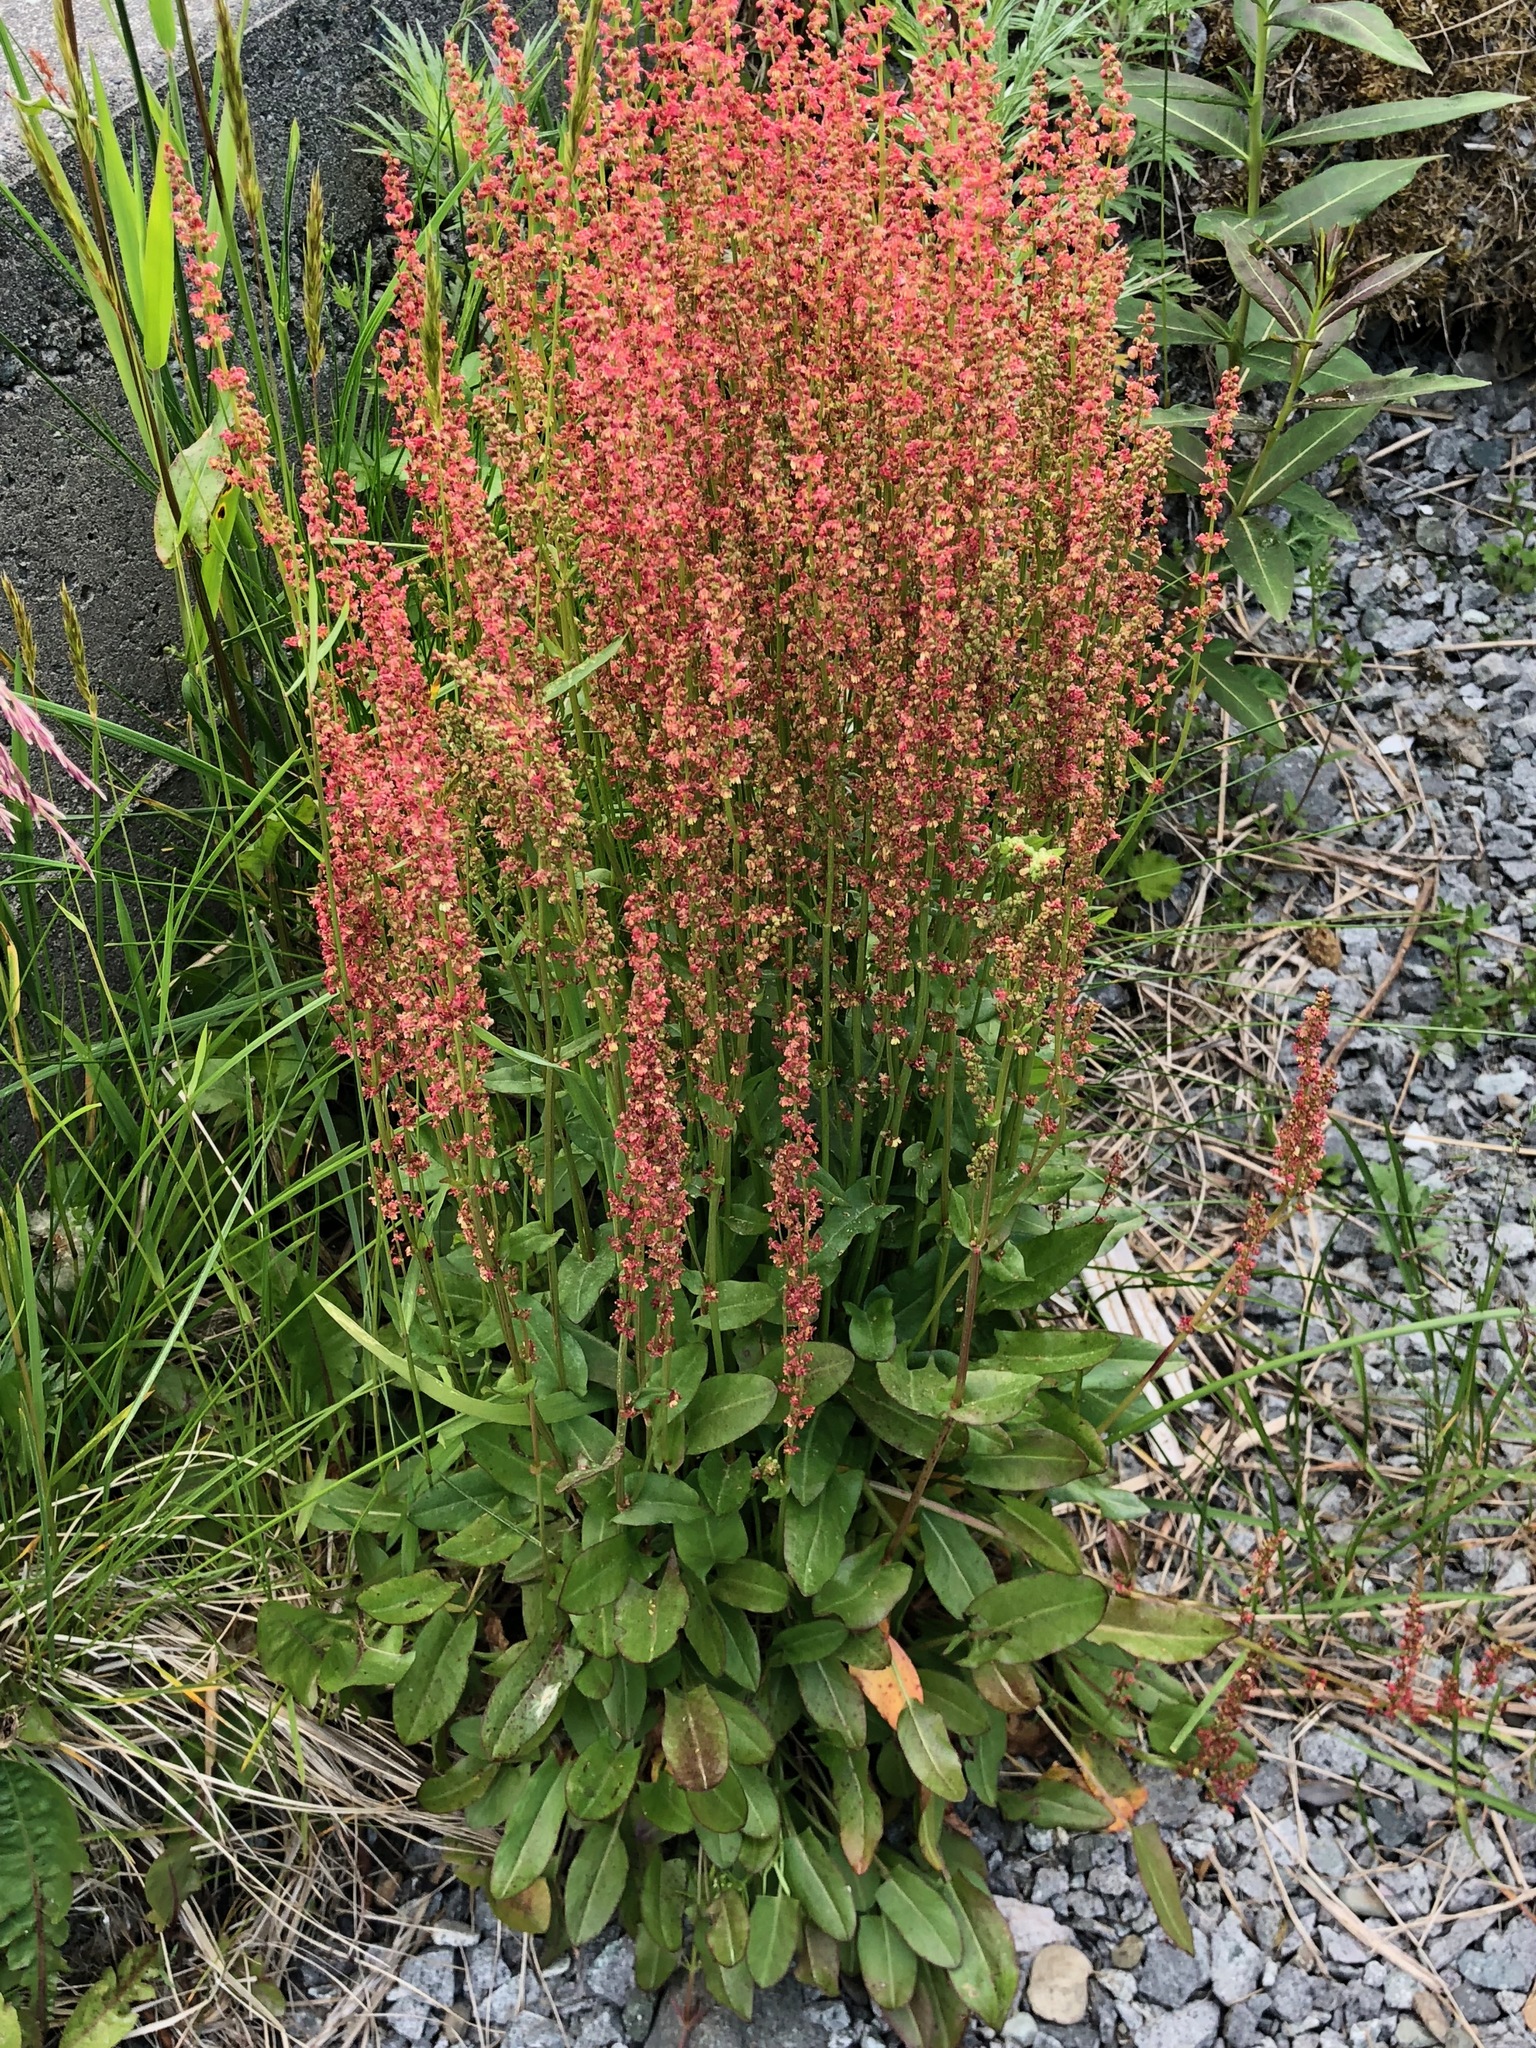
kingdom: Plantae
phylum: Tracheophyta
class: Magnoliopsida
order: Caryophyllales
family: Polygonaceae
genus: Rumex
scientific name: Rumex acetosa
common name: Garden sorrel
